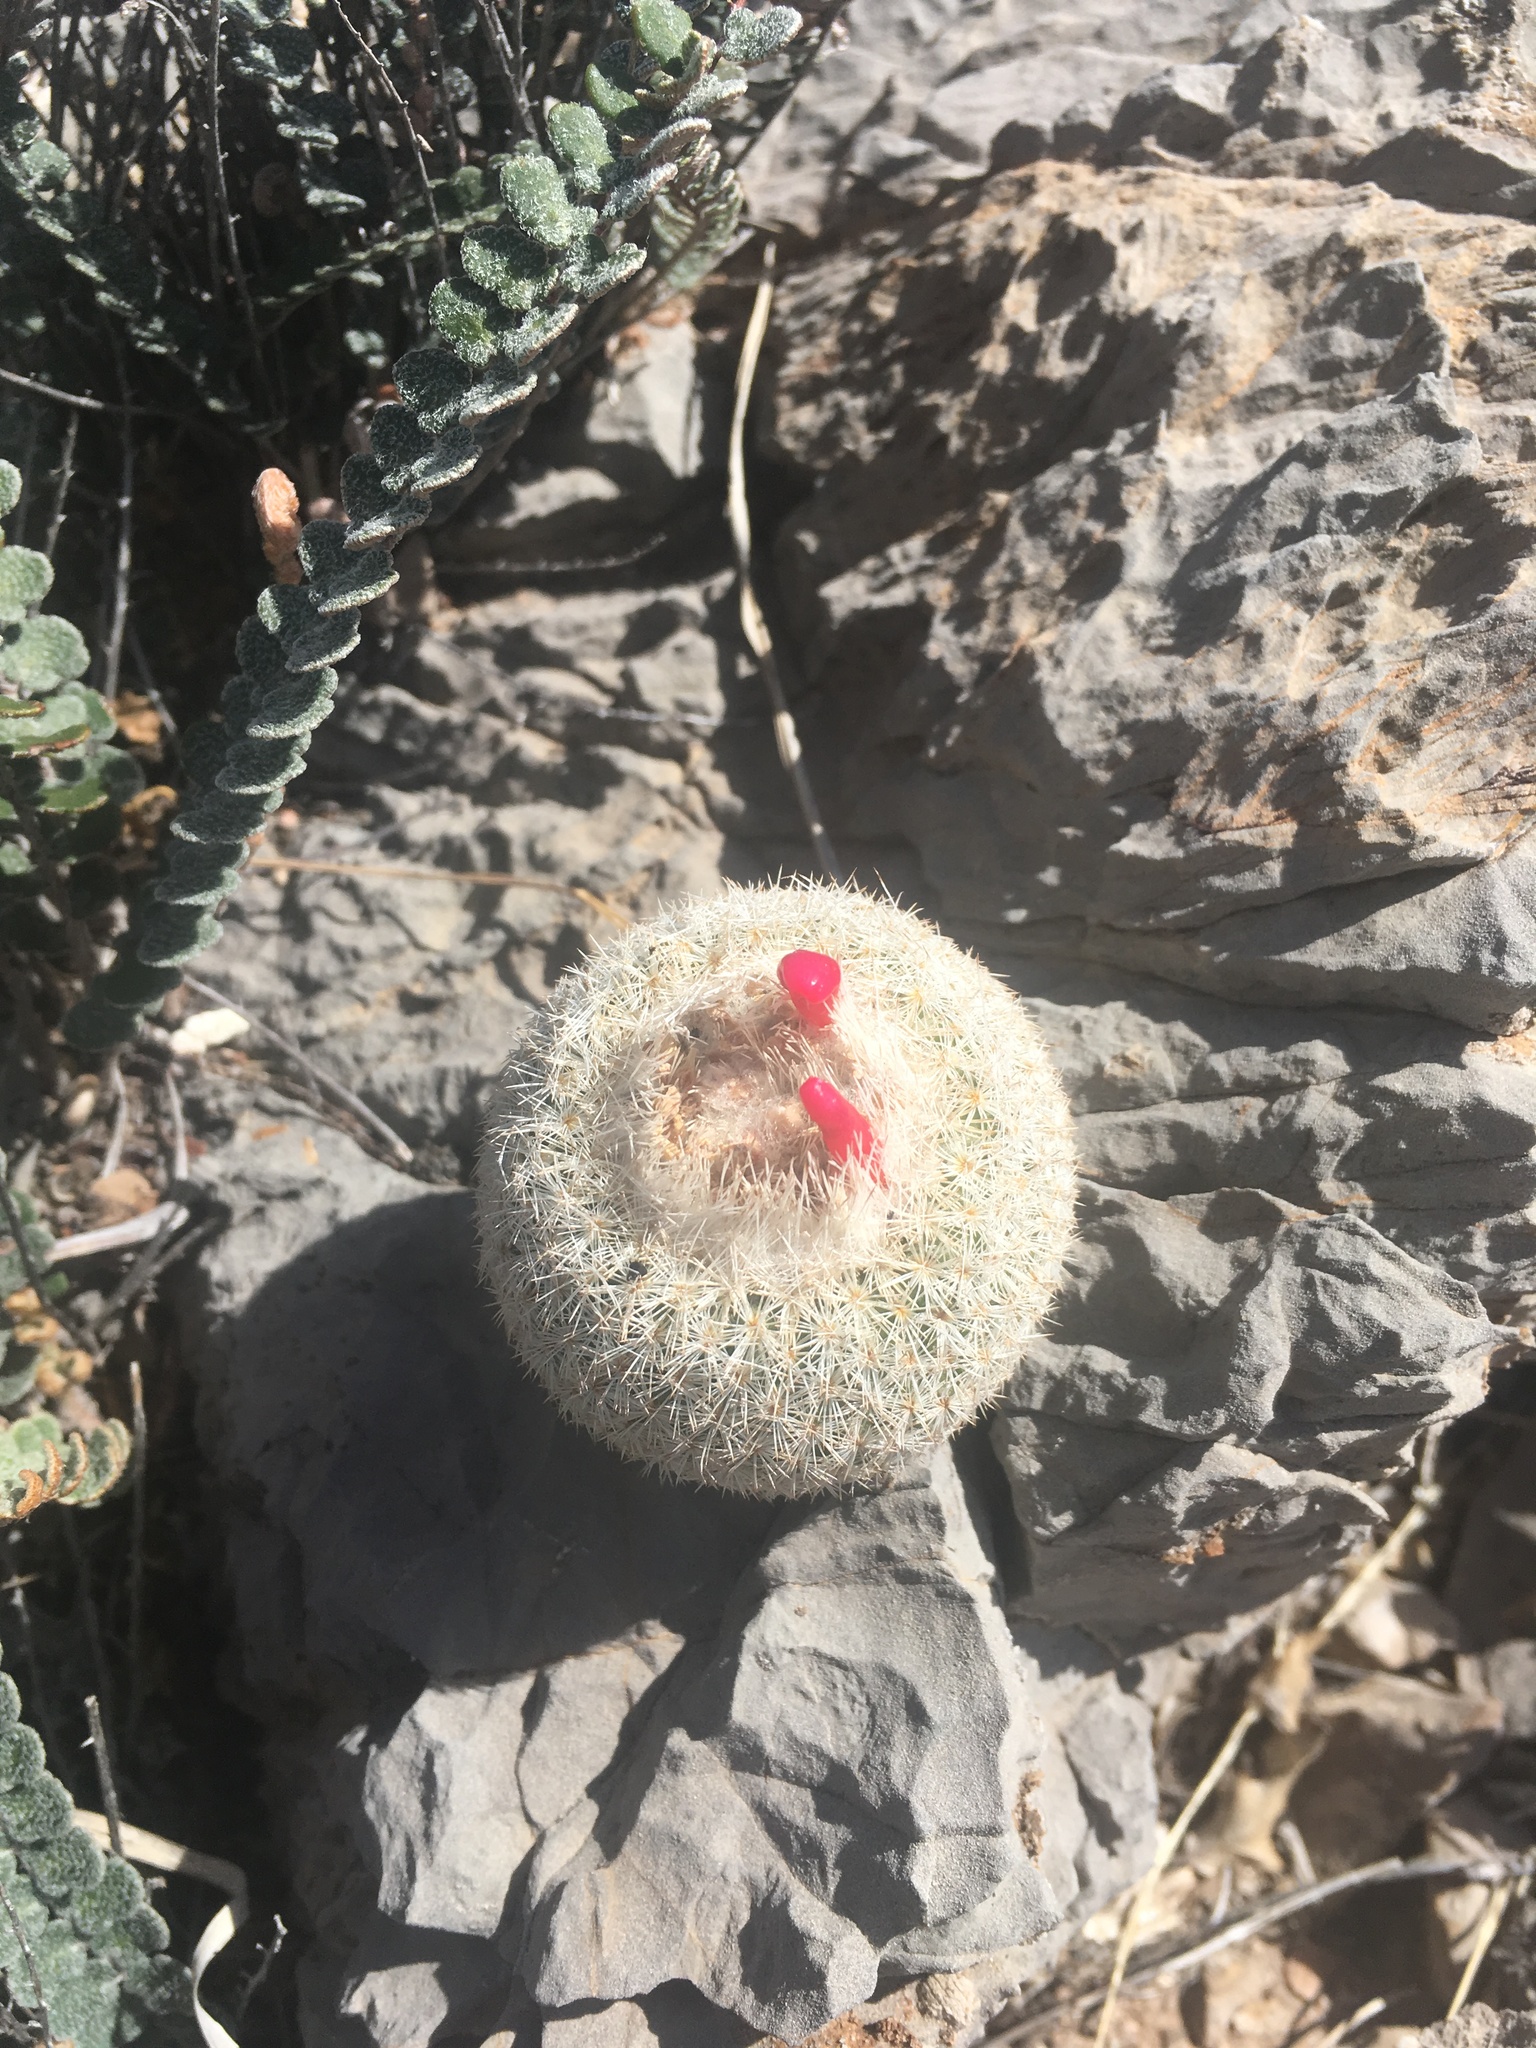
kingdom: Plantae
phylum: Tracheophyta
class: Magnoliopsida
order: Caryophyllales
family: Cactaceae
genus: Epithelantha
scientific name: Epithelantha micromeris
